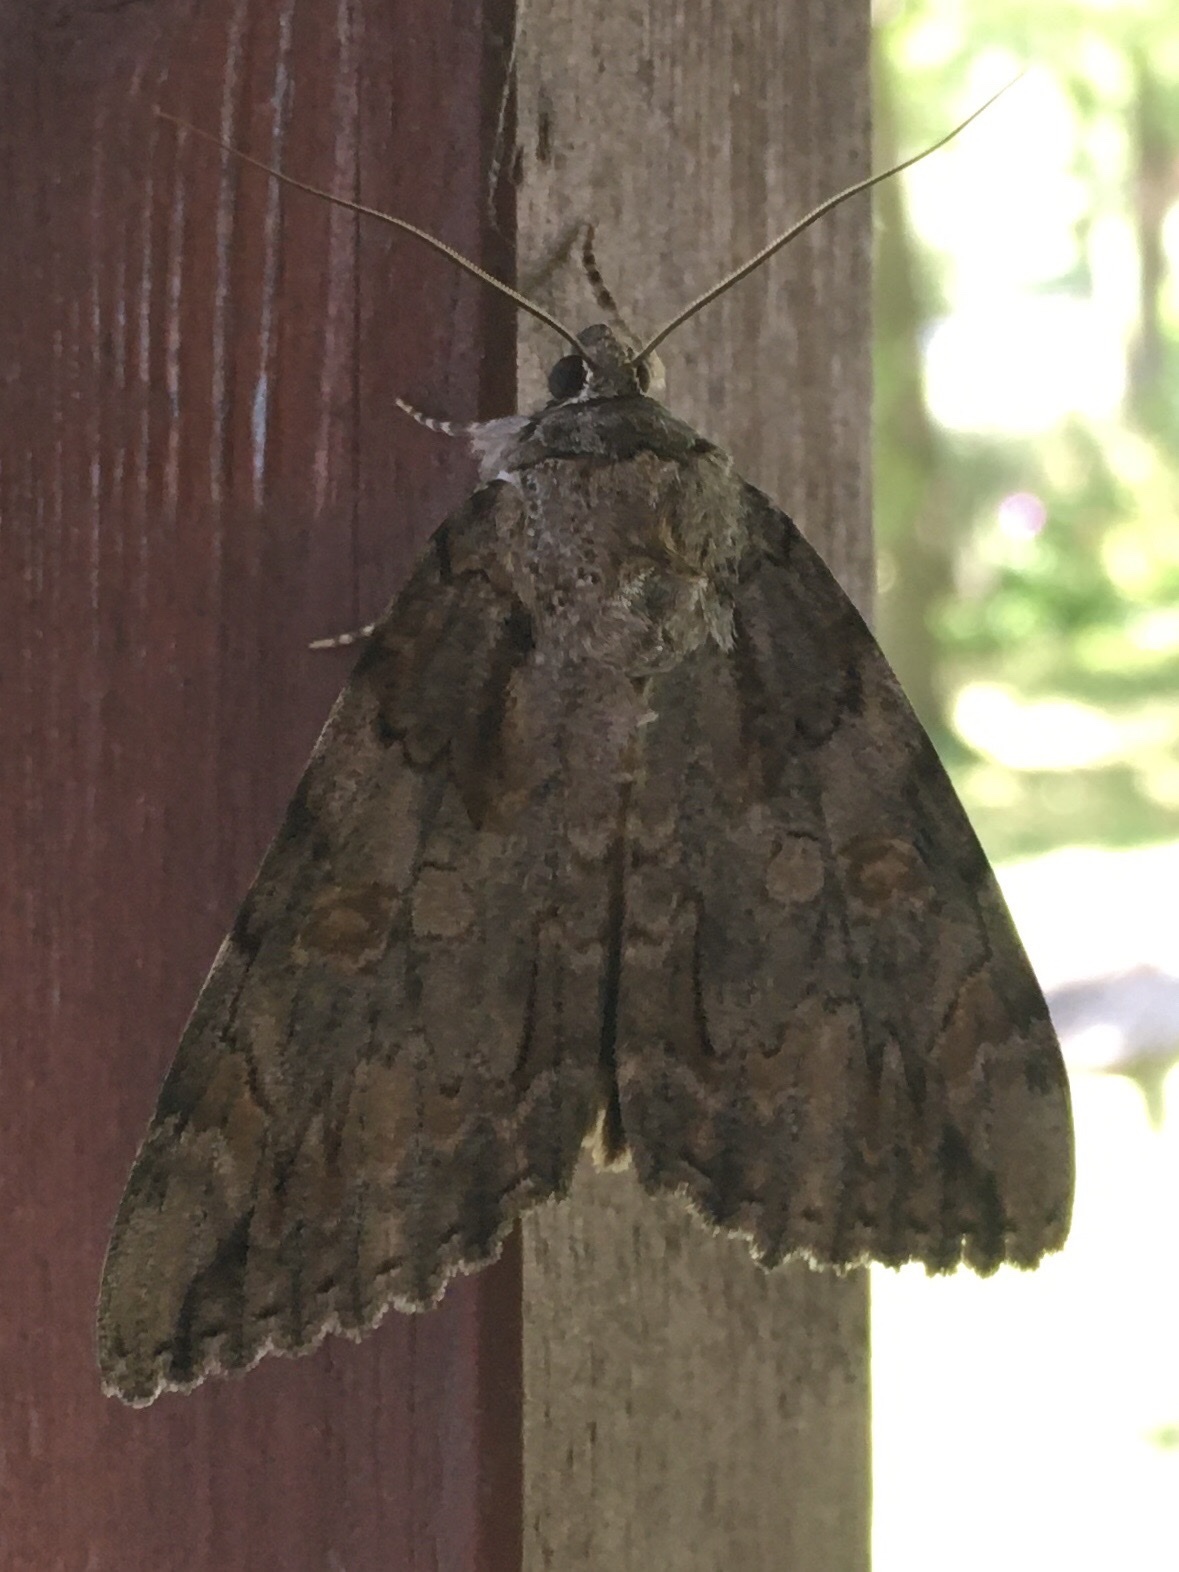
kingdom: Animalia
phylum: Arthropoda
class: Insecta
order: Lepidoptera
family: Erebidae
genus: Catocala
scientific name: Catocala neogama
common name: Bride underwing
